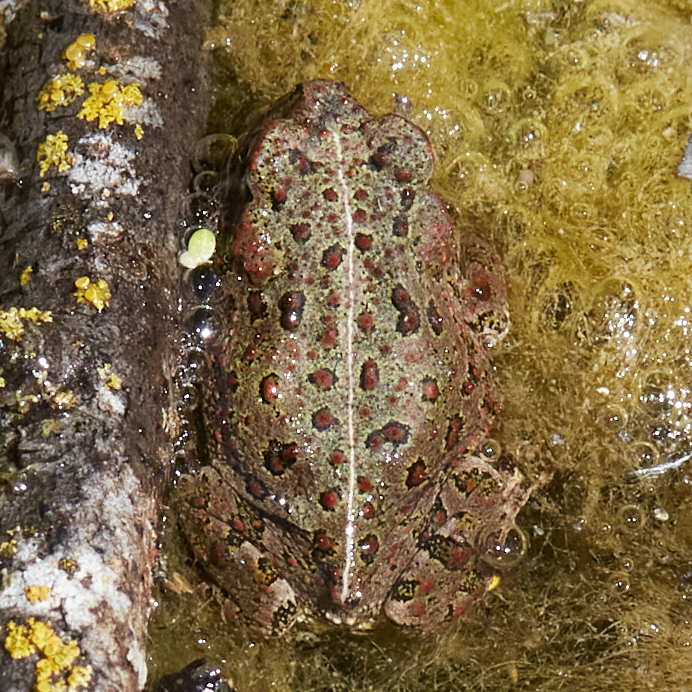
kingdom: Animalia
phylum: Chordata
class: Amphibia
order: Anura
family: Bufonidae
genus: Anaxyrus
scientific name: Anaxyrus boreas
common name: Western toad
